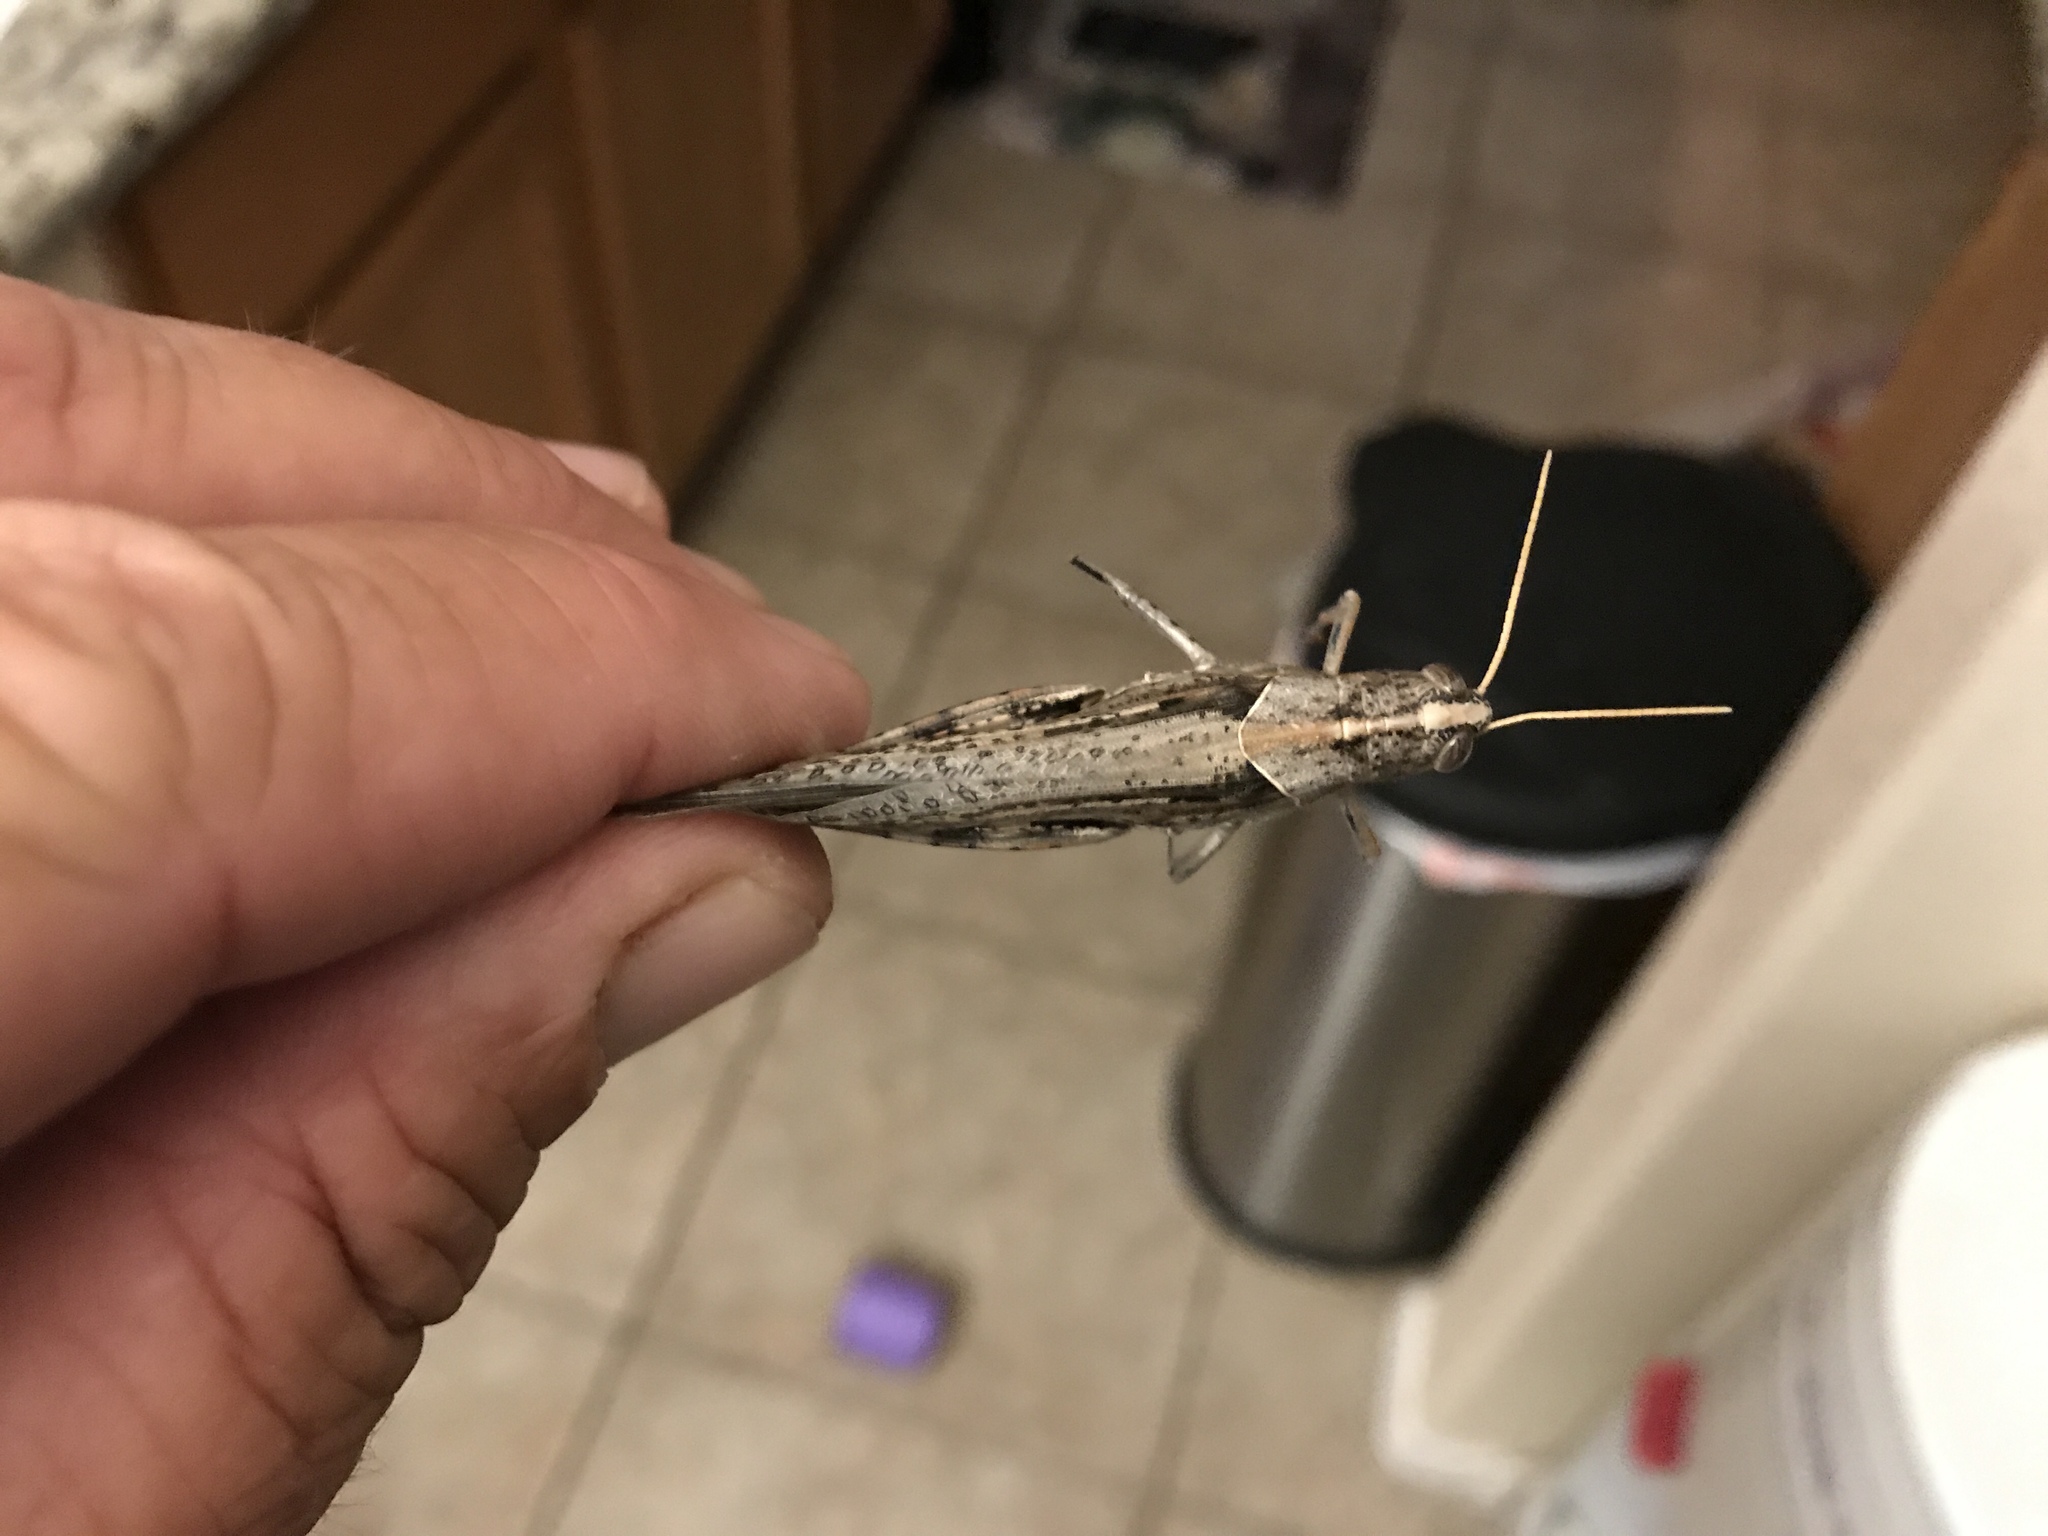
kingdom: Animalia
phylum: Arthropoda
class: Insecta
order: Orthoptera
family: Acrididae
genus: Schistocerca
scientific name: Schistocerca nitens
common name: Vagrant grasshopper
